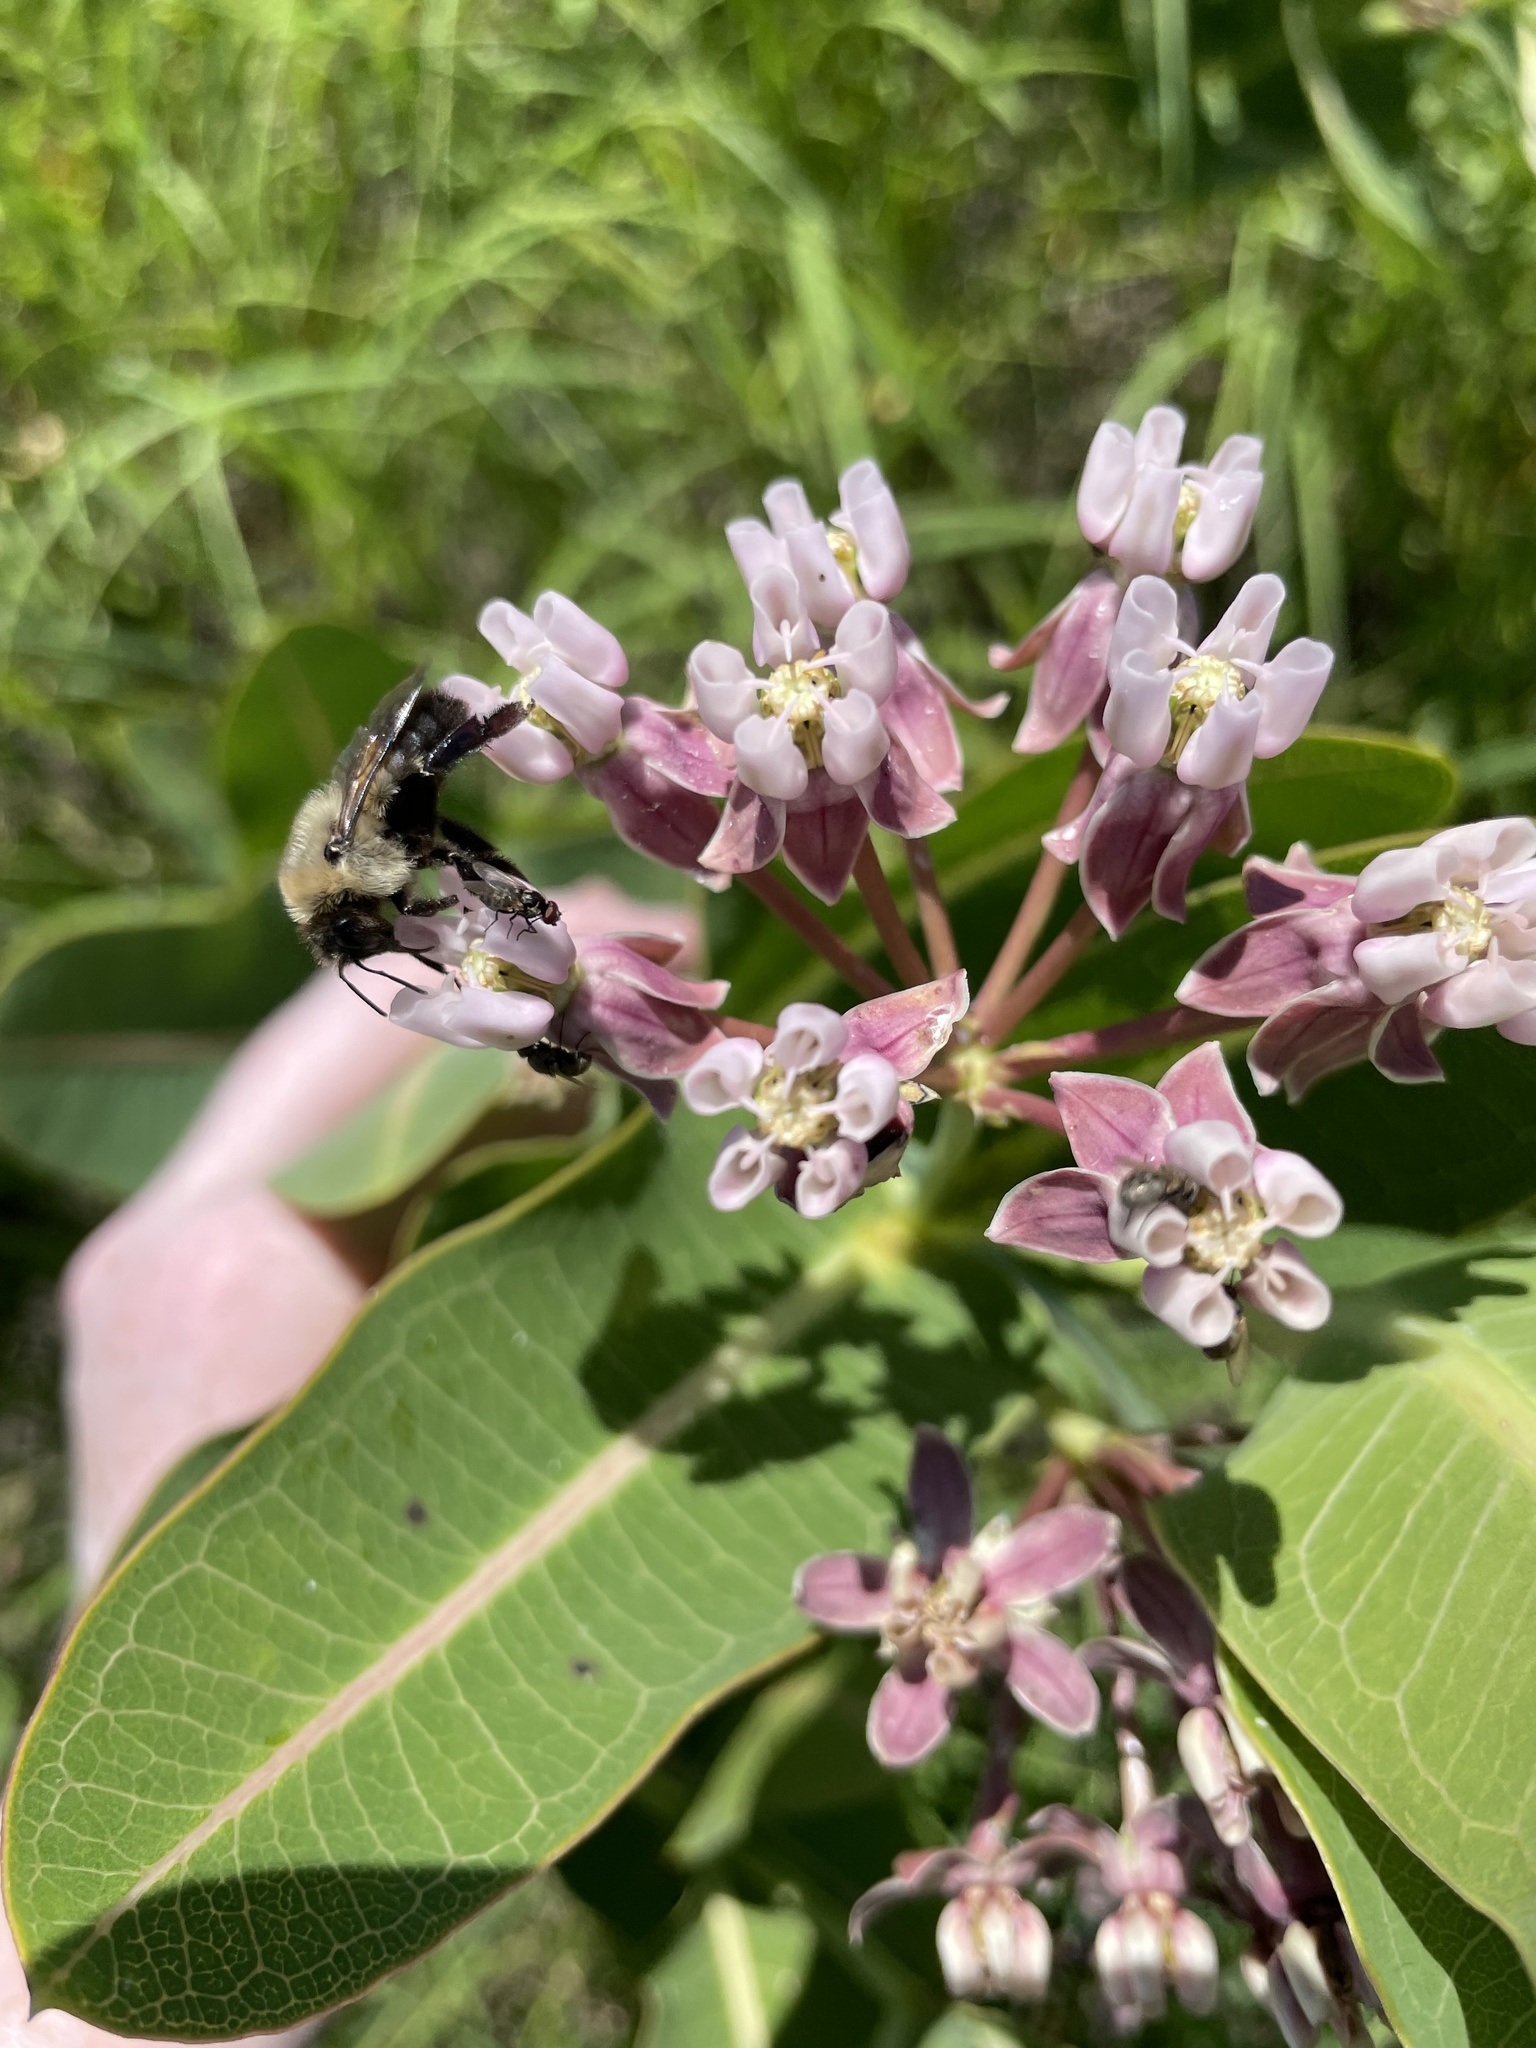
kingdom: Animalia
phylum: Arthropoda
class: Insecta
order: Hymenoptera
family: Apidae
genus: Bombus
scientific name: Bombus griseocollis
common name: Brown-belted bumble bee
